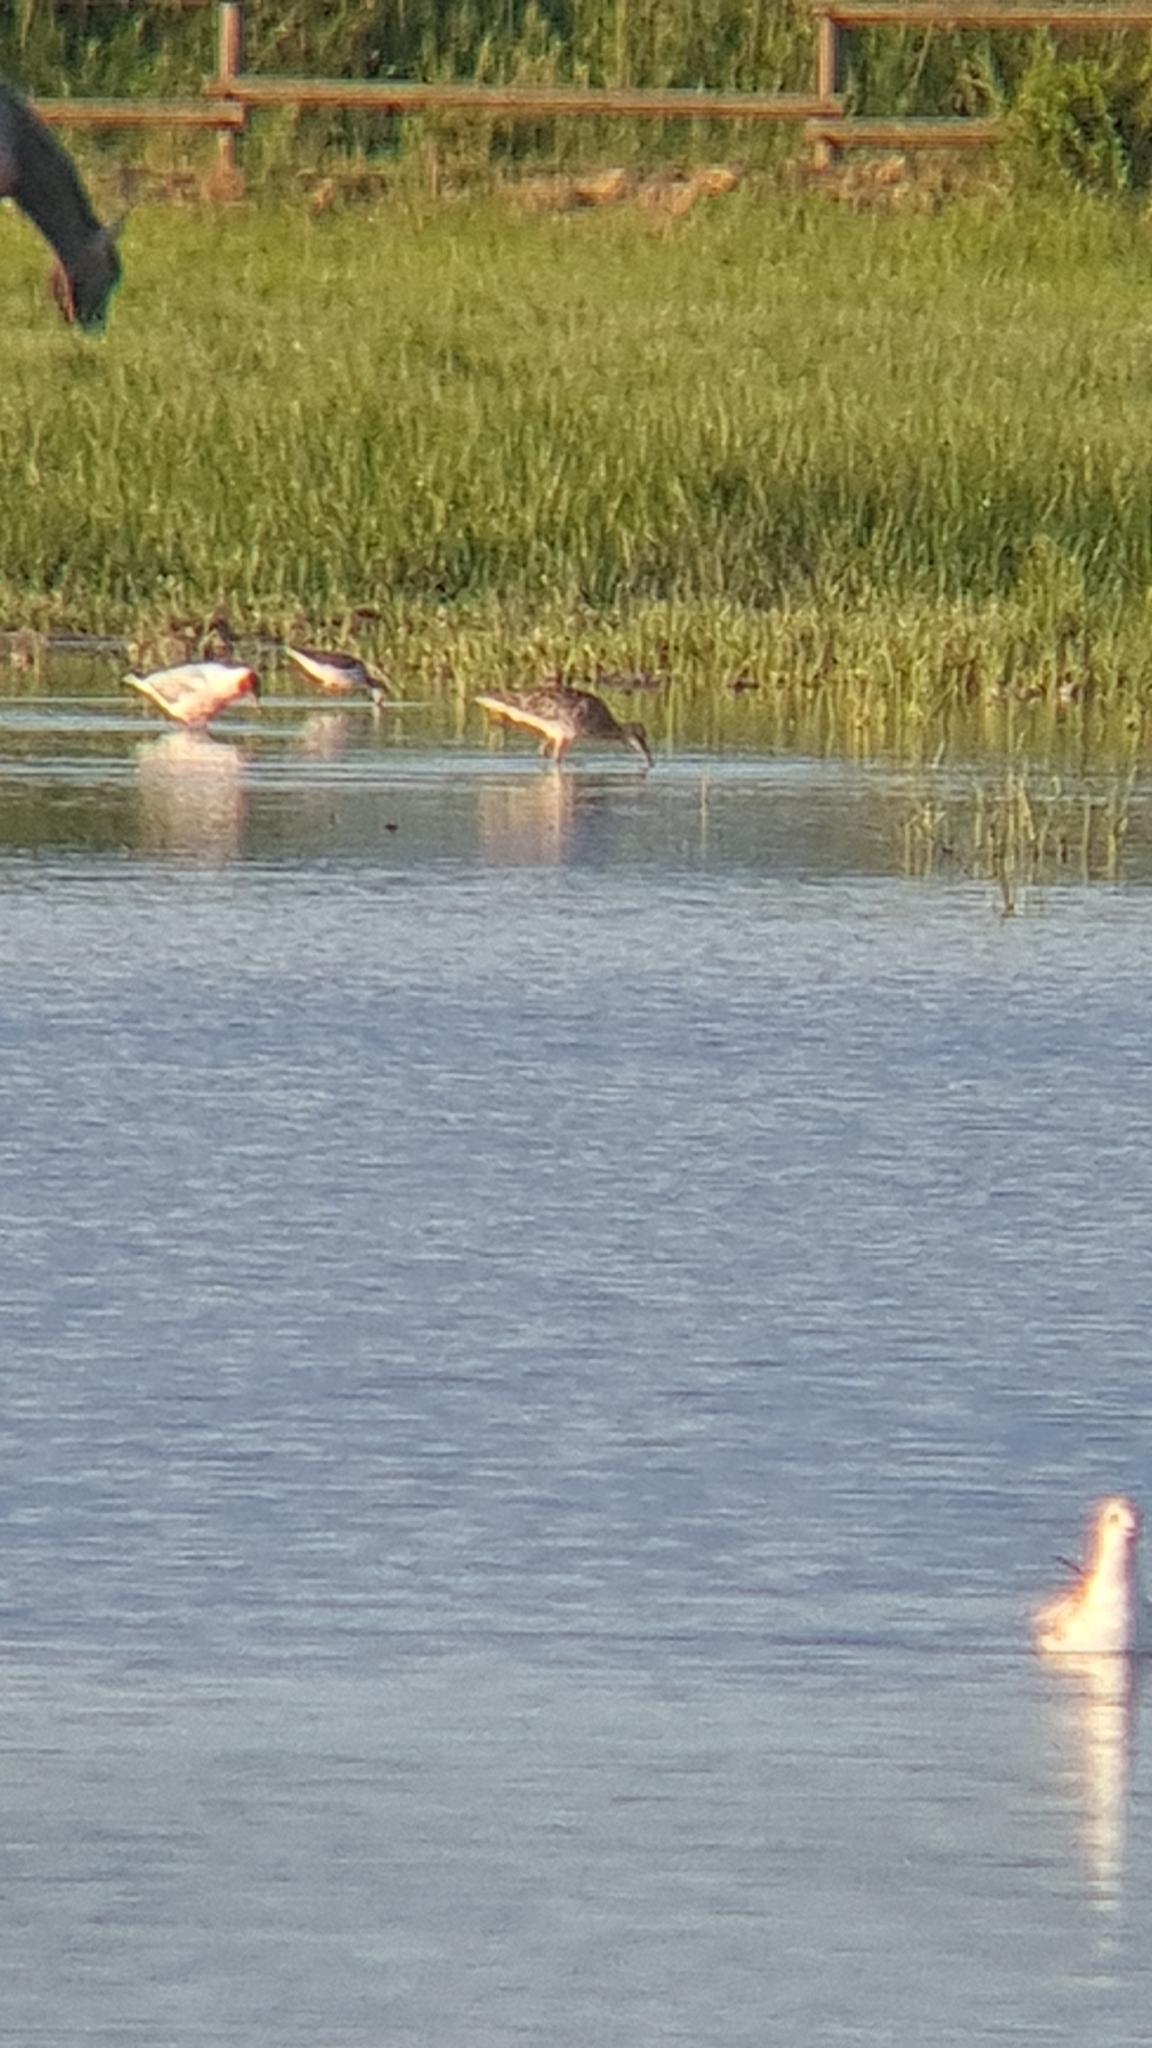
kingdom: Animalia
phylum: Chordata
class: Aves
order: Charadriiformes
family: Scolopacidae
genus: Numenius
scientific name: Numenius arquata
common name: Eurasian curlew
